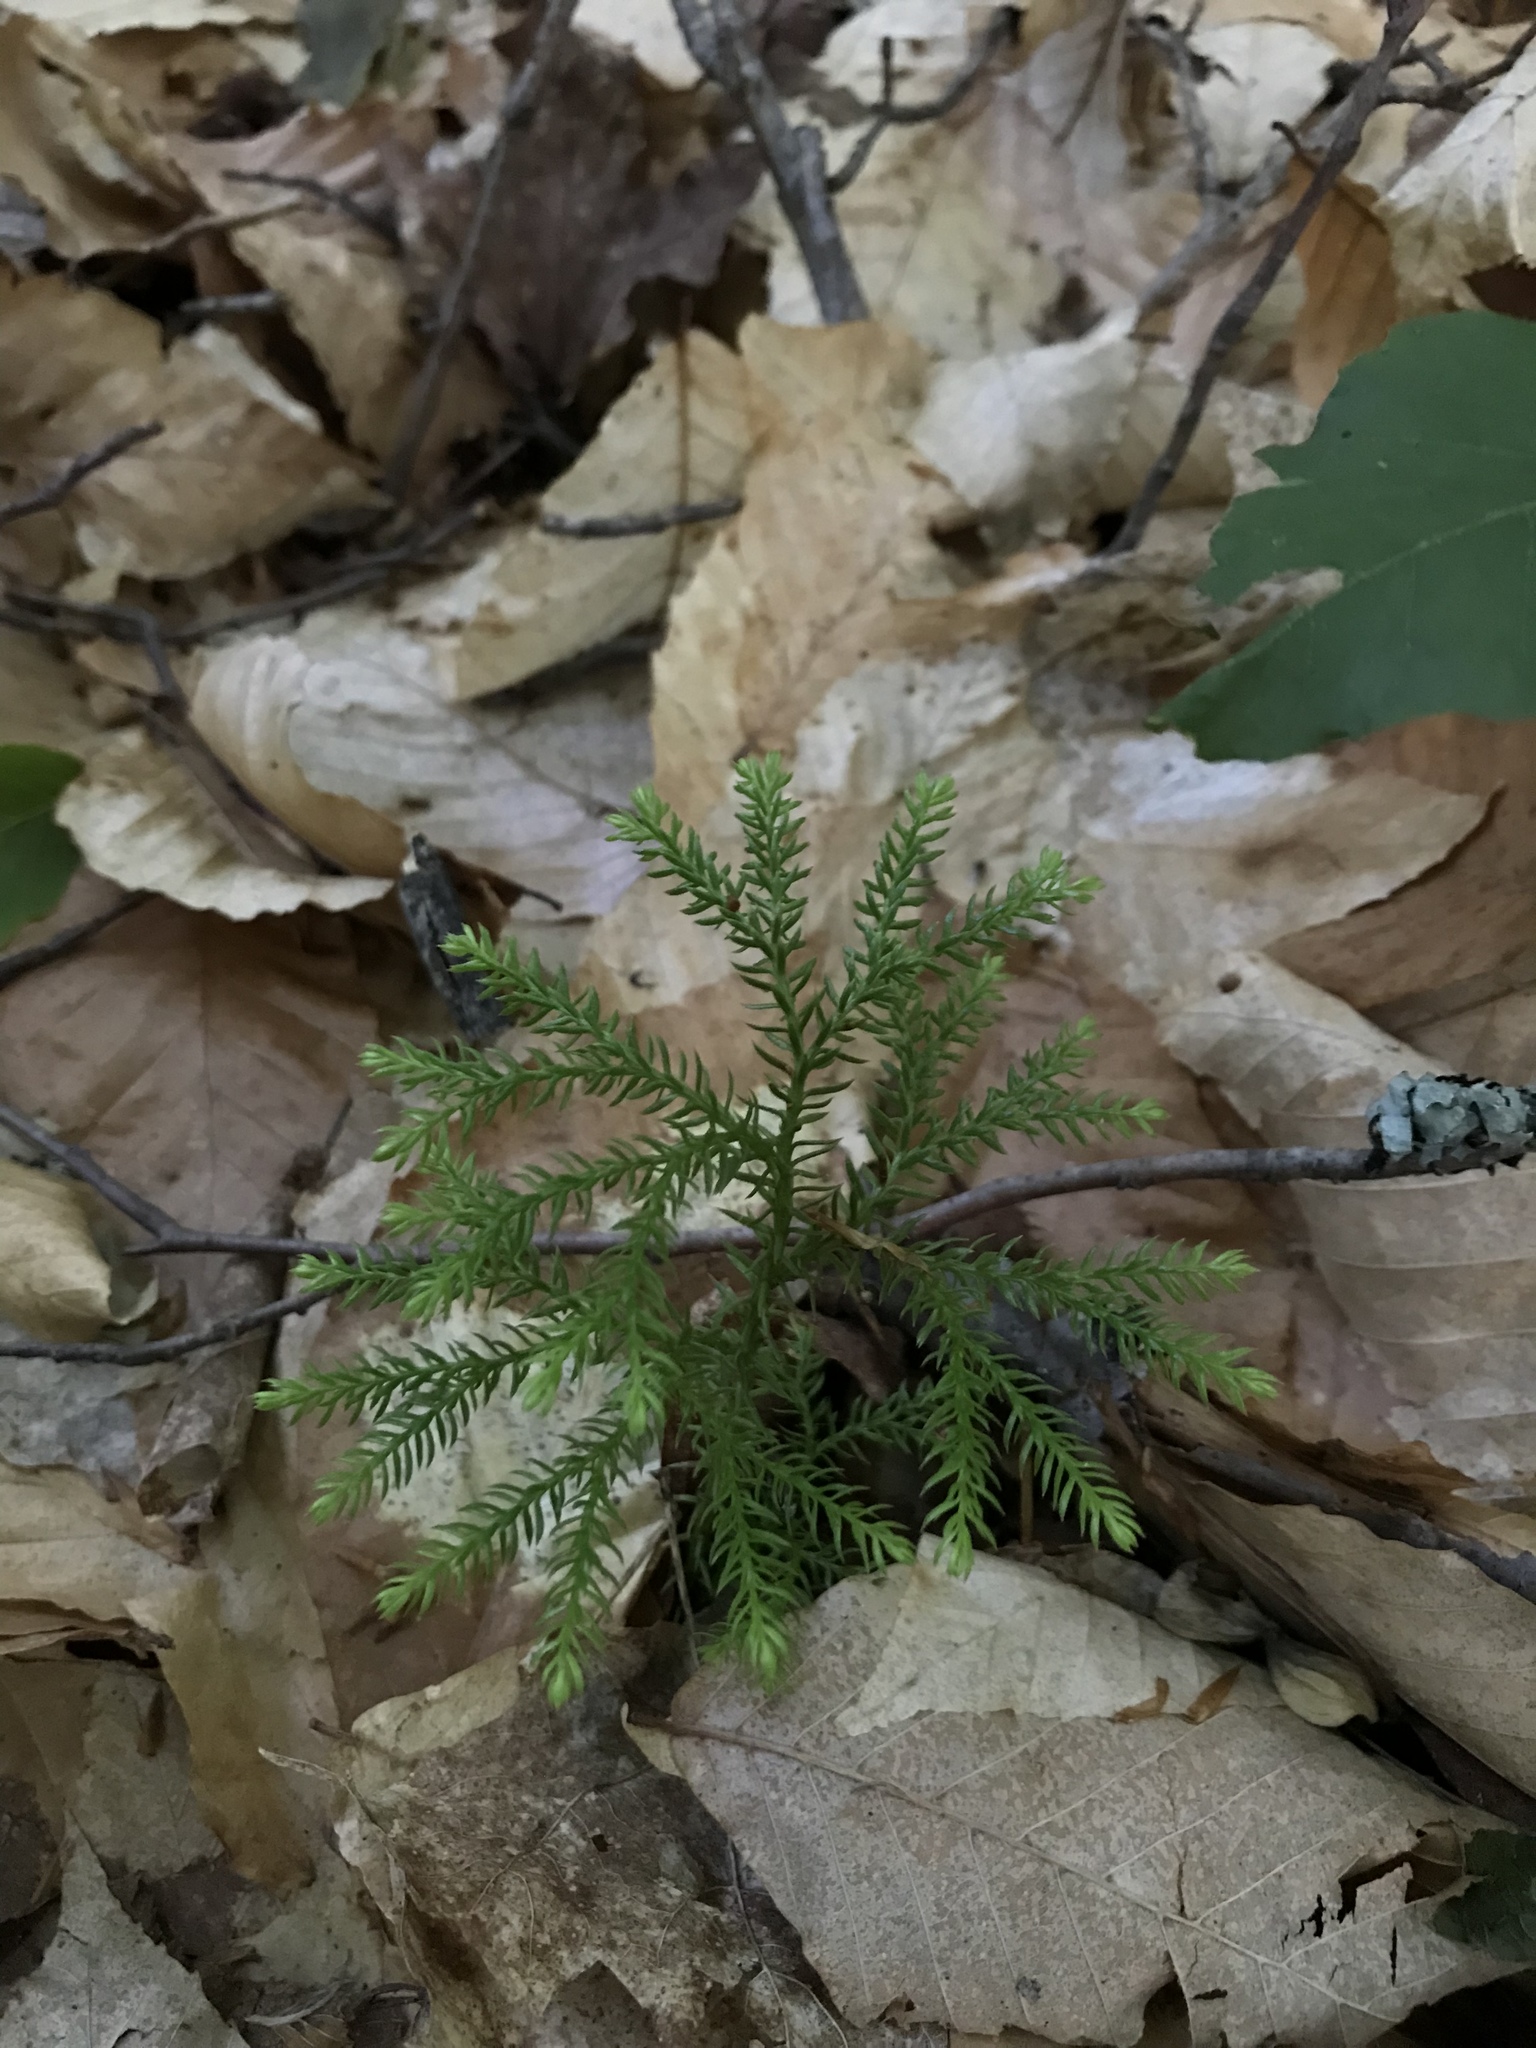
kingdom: Plantae
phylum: Tracheophyta
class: Lycopodiopsida
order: Lycopodiales
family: Lycopodiaceae
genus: Dendrolycopodium
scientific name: Dendrolycopodium dendroideum
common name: Northern tree-clubmoss
